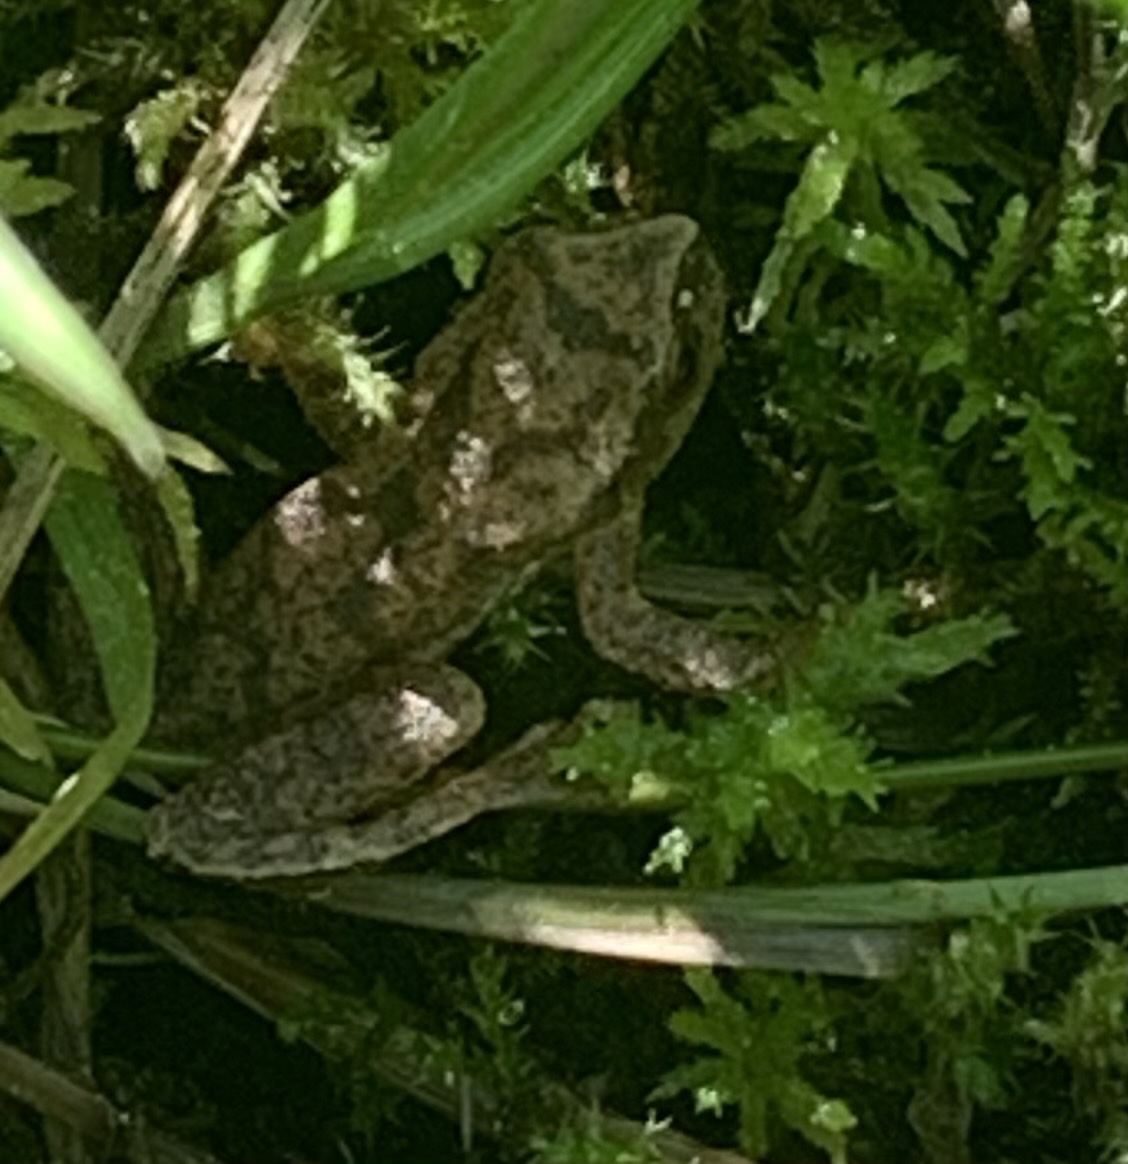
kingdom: Animalia
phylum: Chordata
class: Amphibia
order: Anura
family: Hylidae
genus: Pseudacris
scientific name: Pseudacris crucifer
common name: Spring peeper
